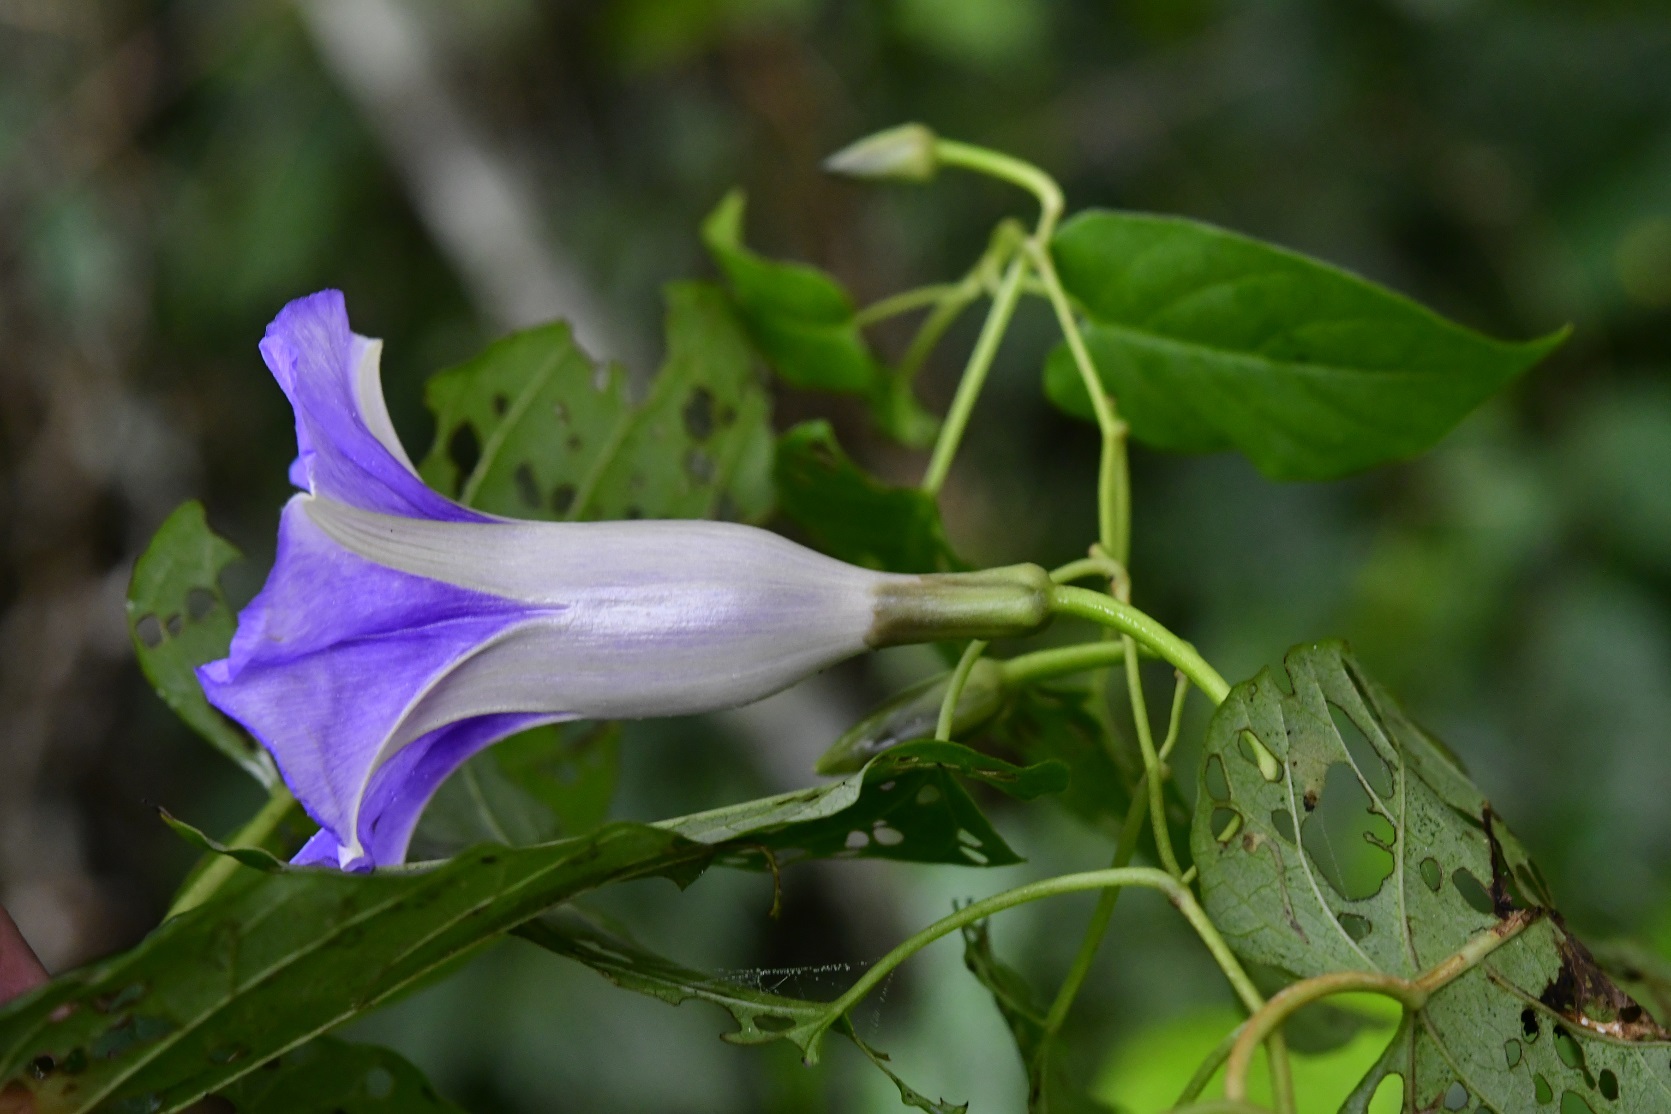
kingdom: Plantae
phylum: Tracheophyta
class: Magnoliopsida
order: Solanales
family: Convolvulaceae
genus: Ipomoea
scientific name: Ipomoea lindenii
